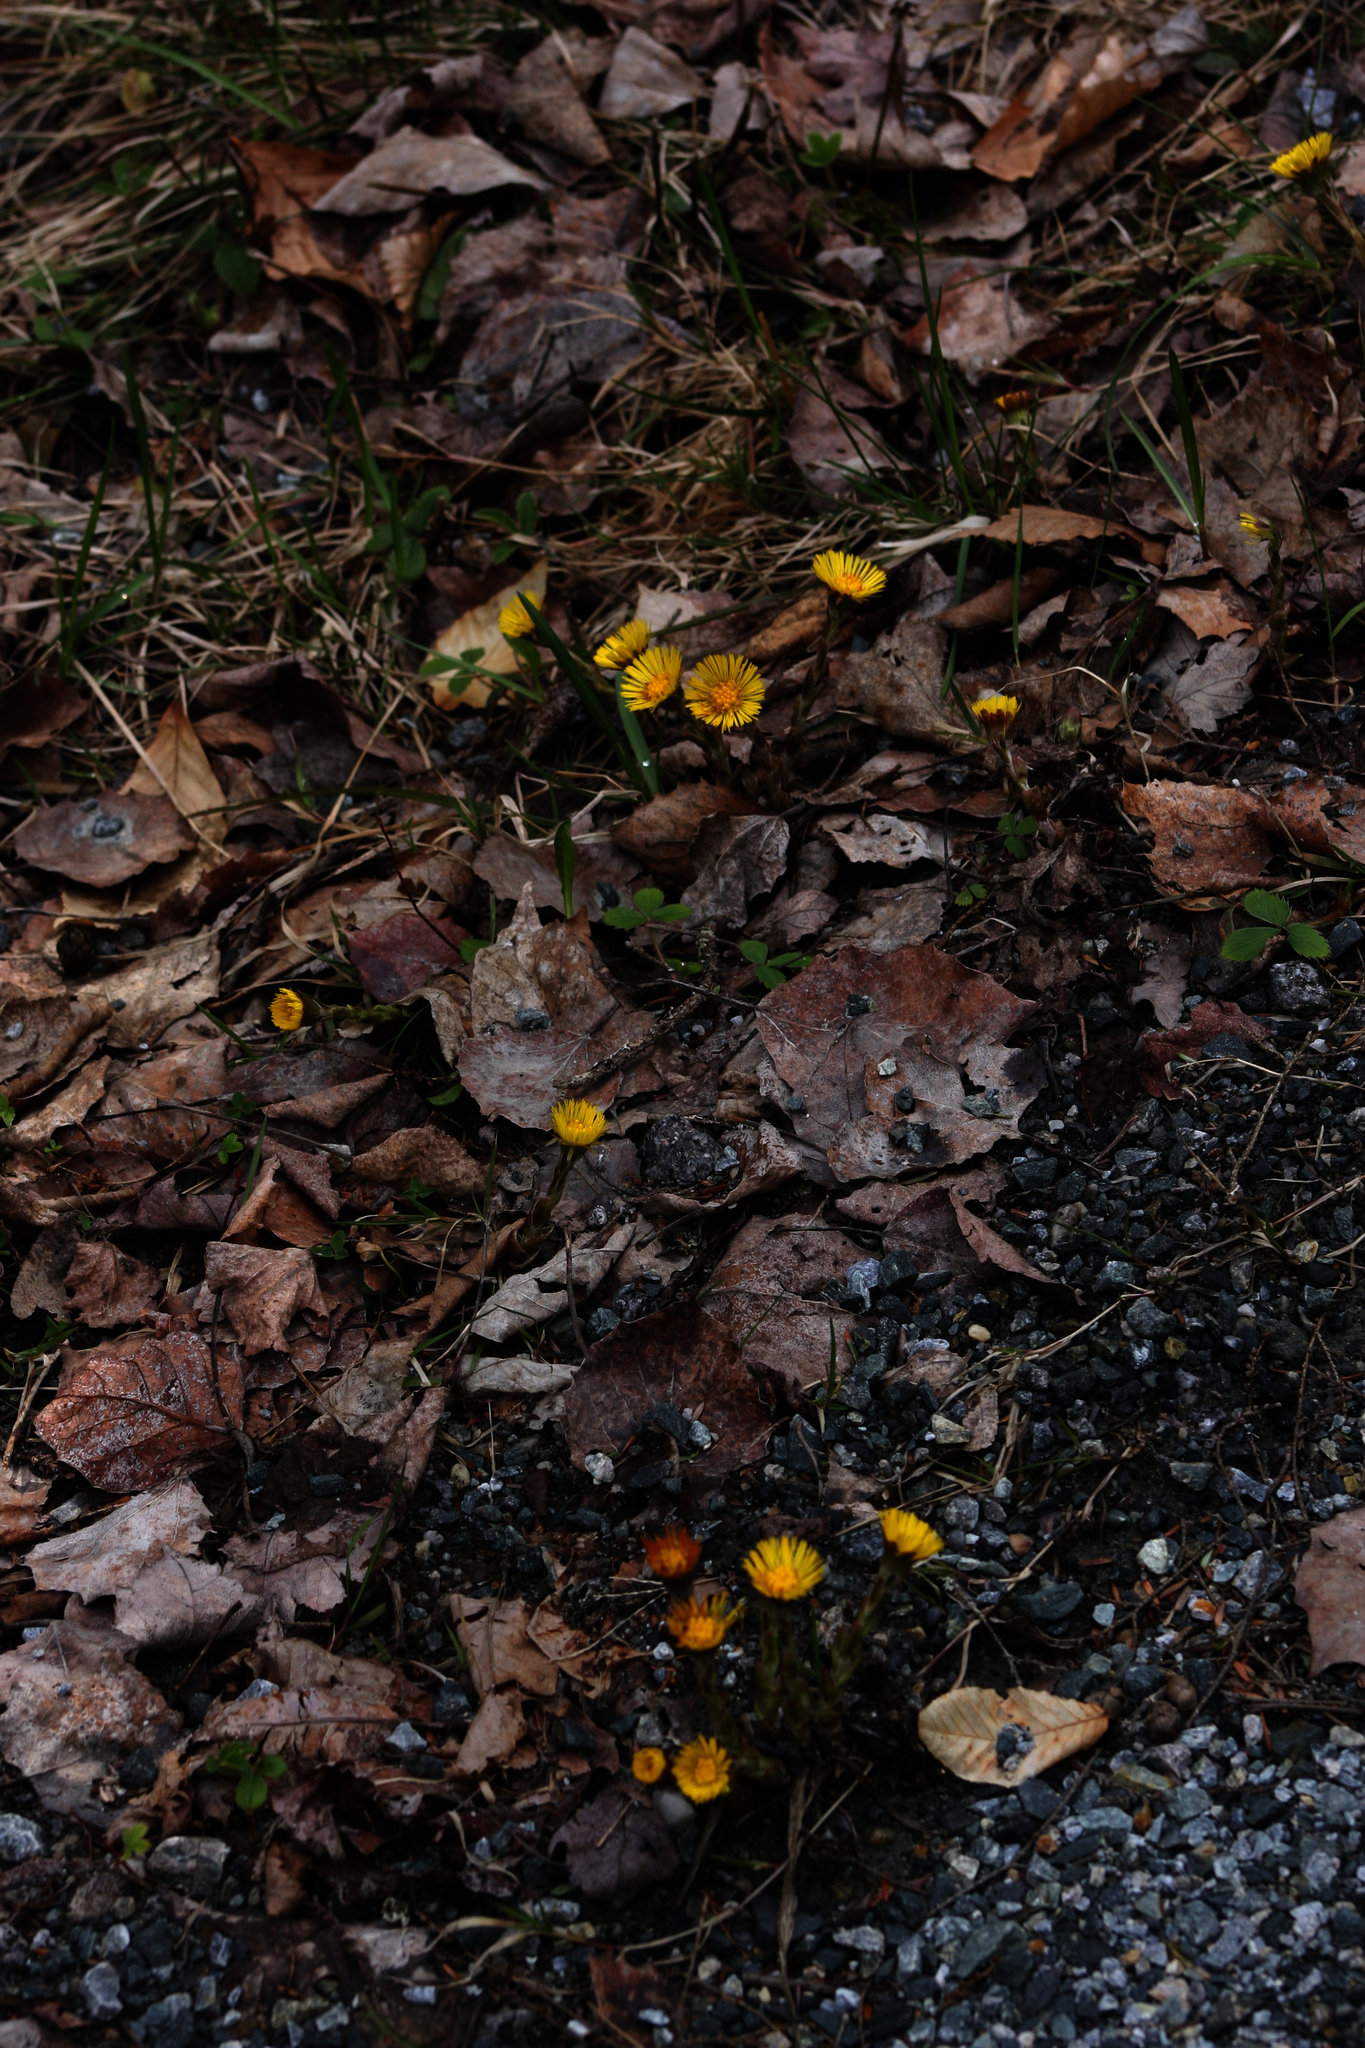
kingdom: Plantae
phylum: Tracheophyta
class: Magnoliopsida
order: Asterales
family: Asteraceae
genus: Tussilago
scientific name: Tussilago farfara
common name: Coltsfoot
